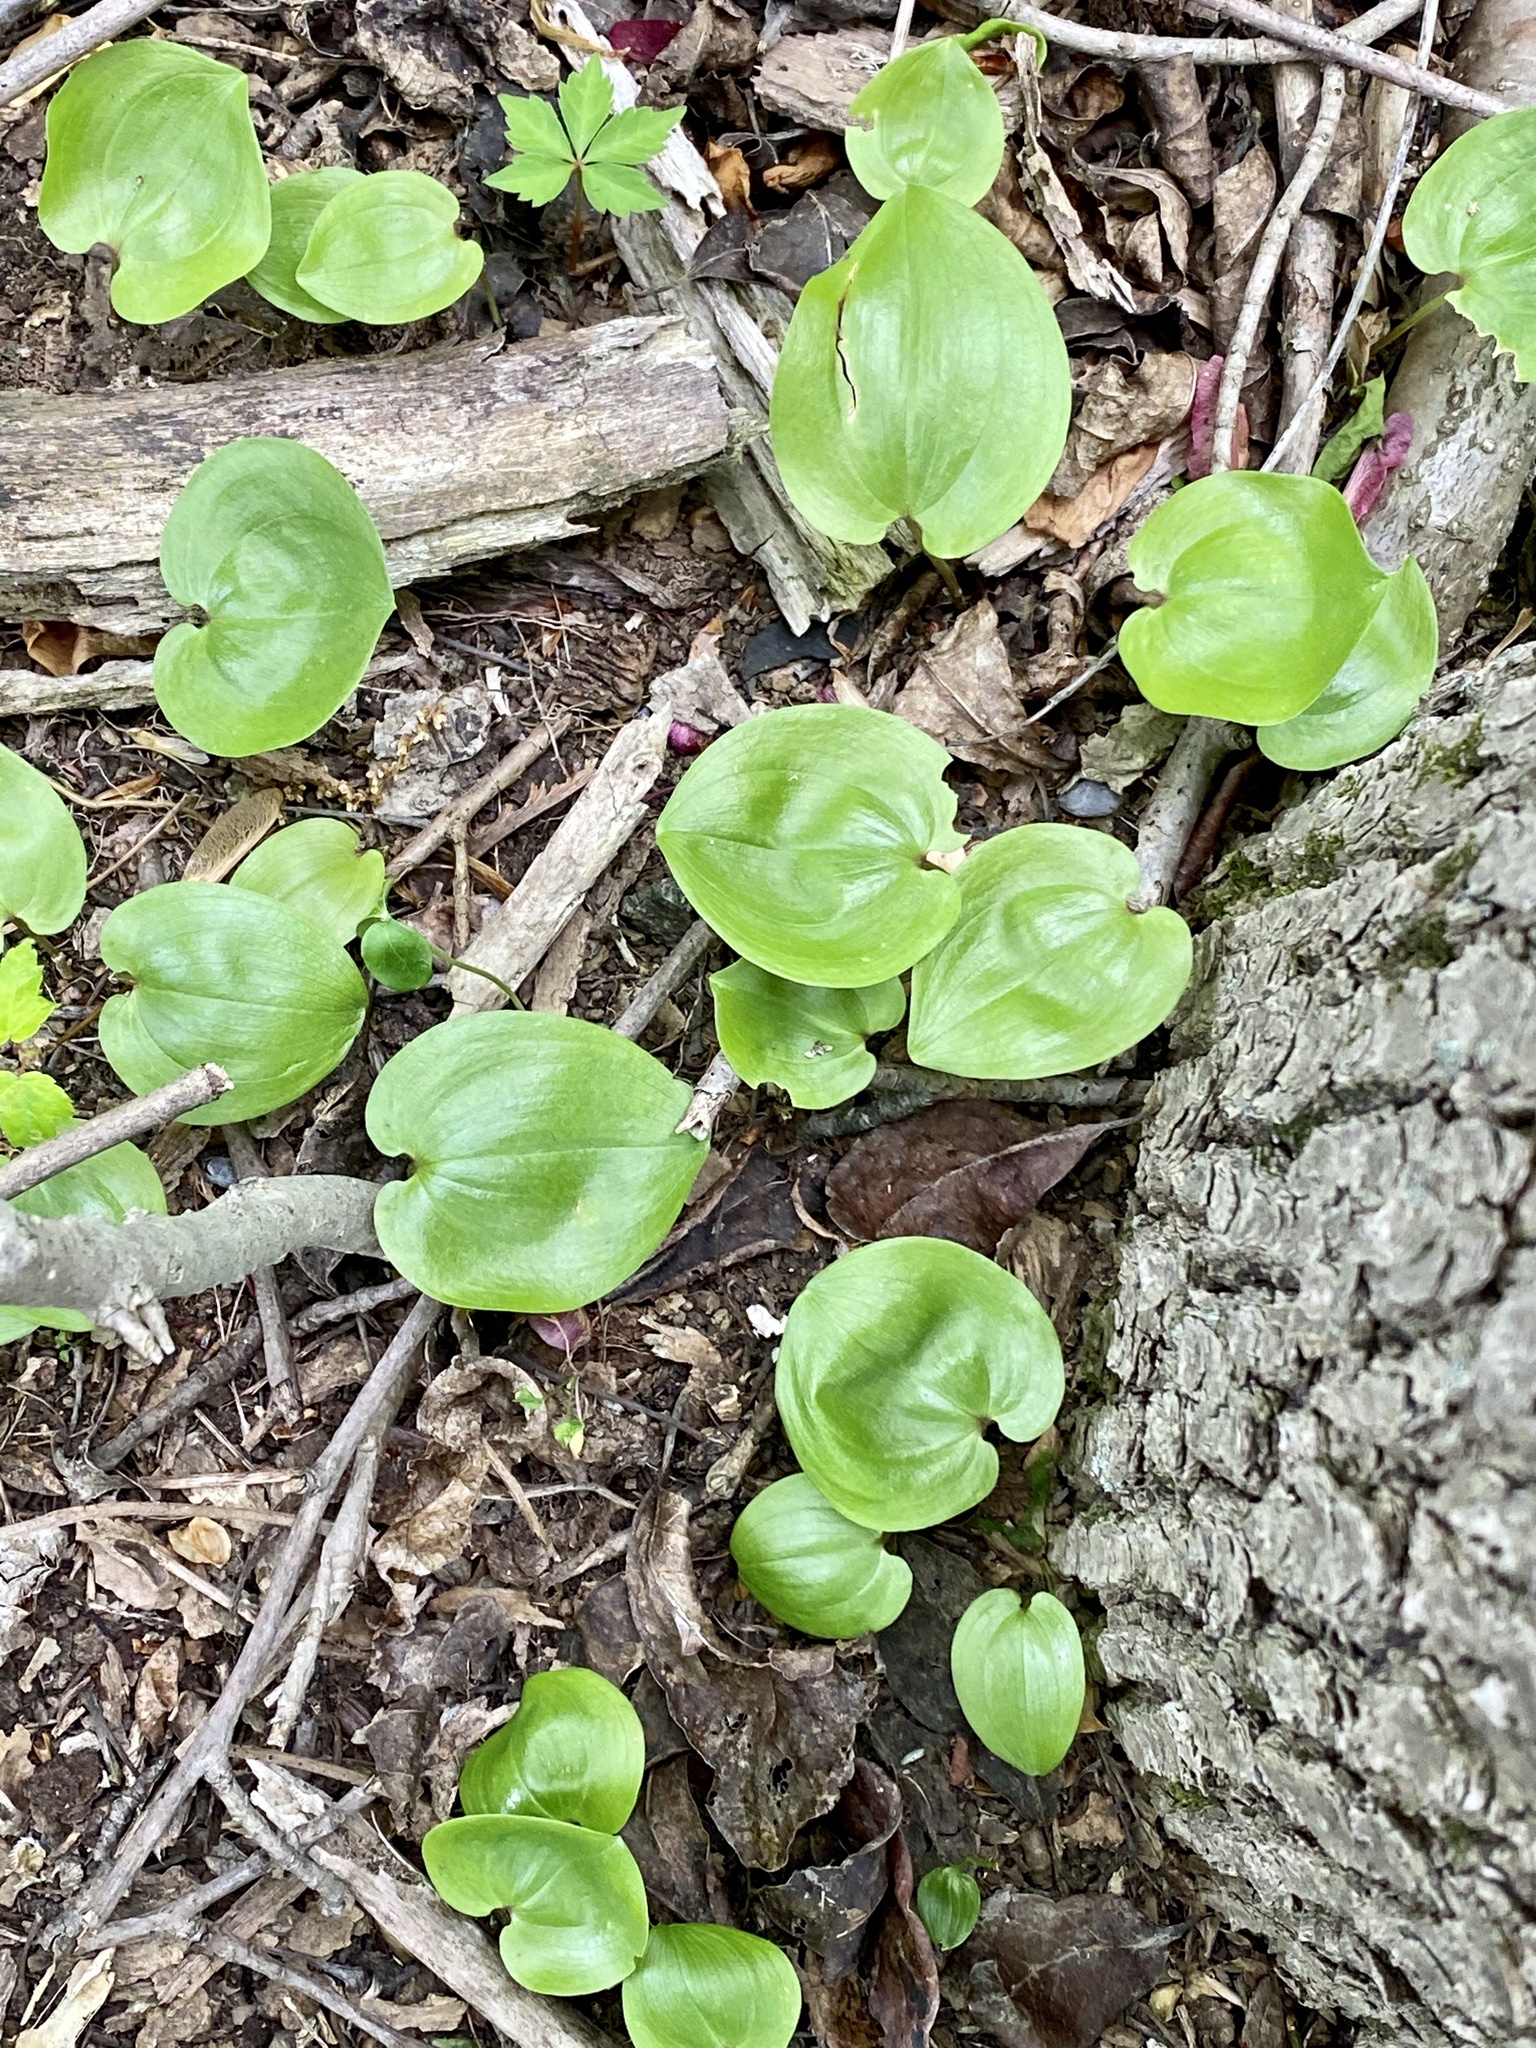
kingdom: Plantae
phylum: Tracheophyta
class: Liliopsida
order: Asparagales
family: Asparagaceae
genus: Maianthemum
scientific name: Maianthemum canadense
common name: False lily-of-the-valley
